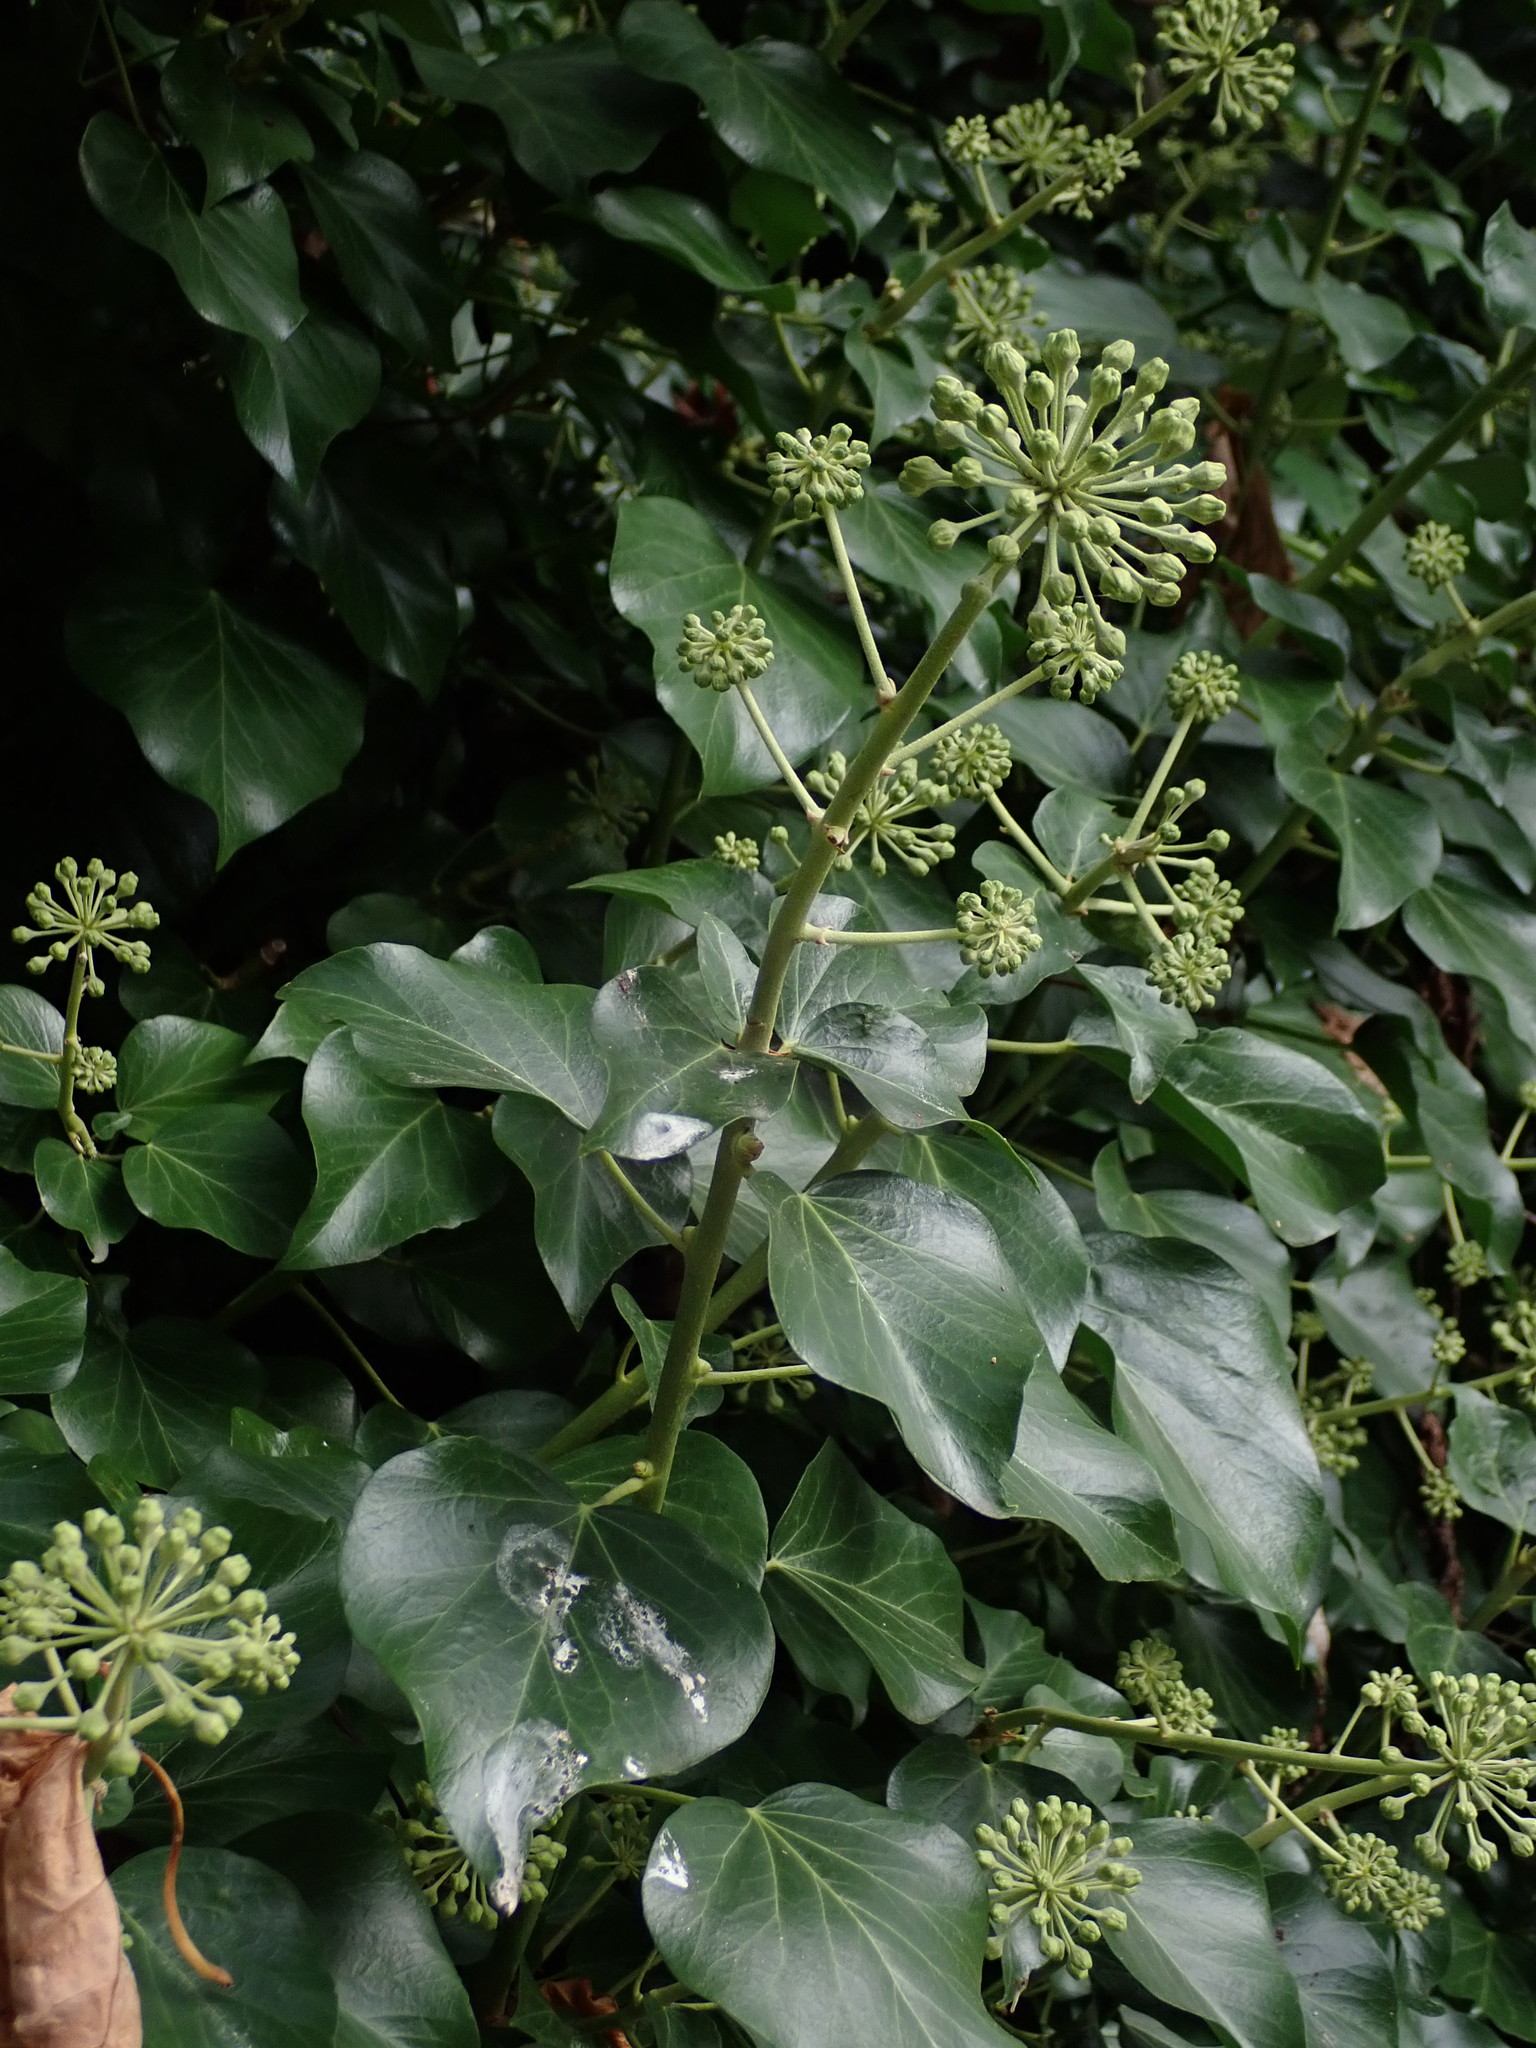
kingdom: Plantae
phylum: Tracheophyta
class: Magnoliopsida
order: Apiales
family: Araliaceae
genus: Hedera
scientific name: Hedera helix
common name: Ivy
